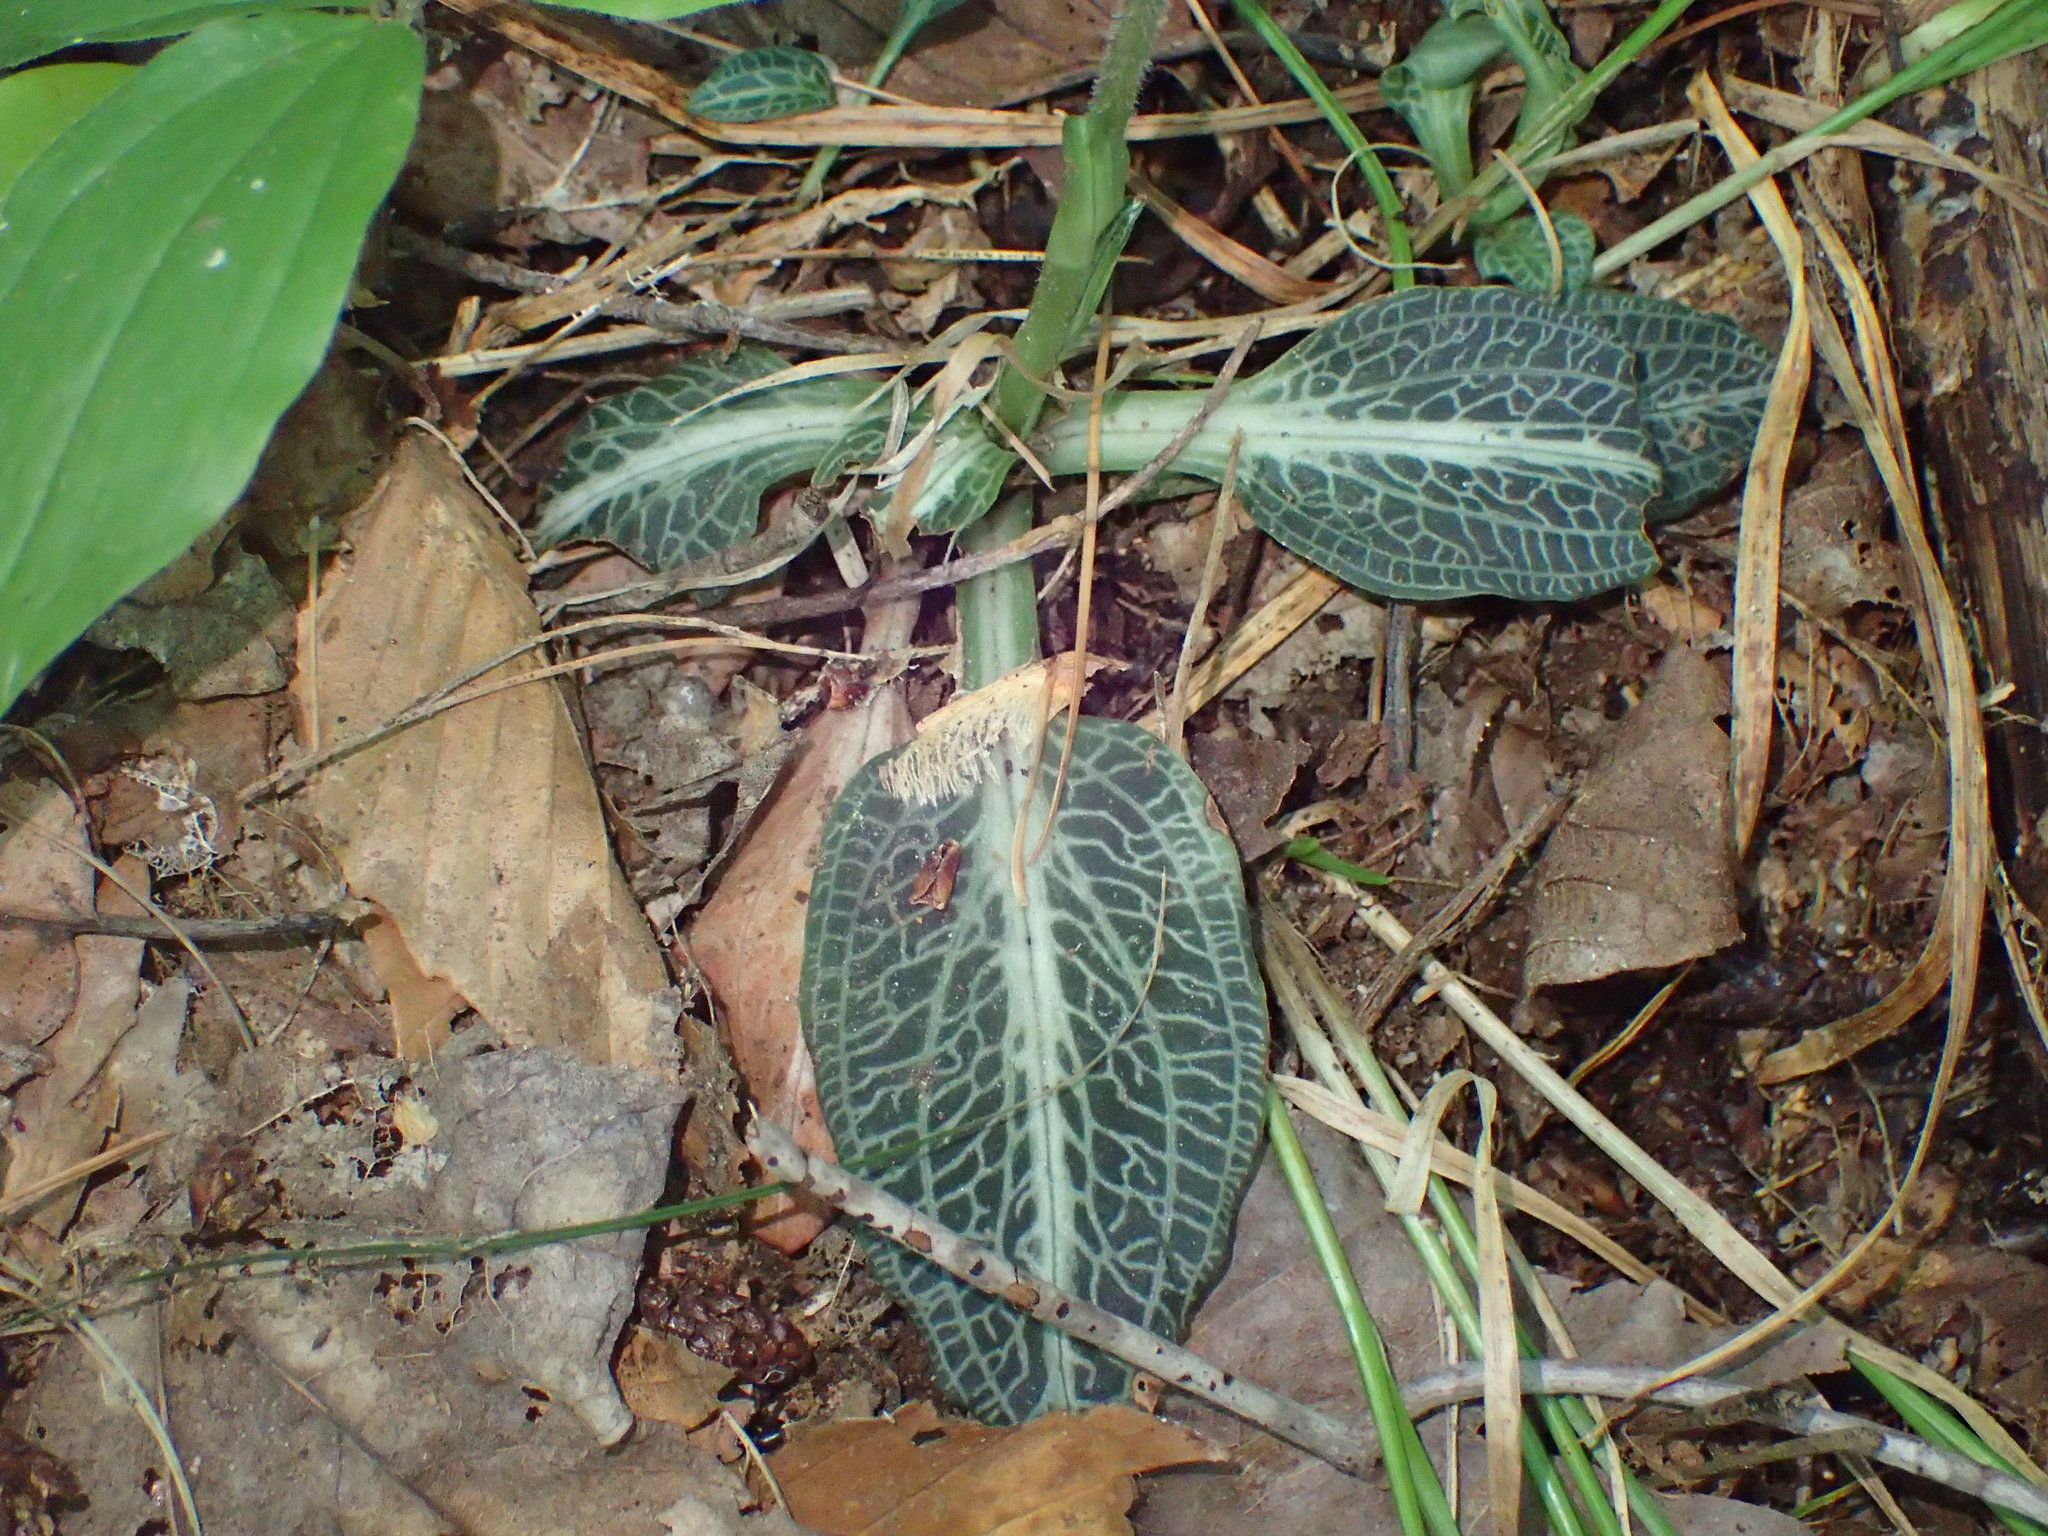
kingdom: Plantae
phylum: Tracheophyta
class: Liliopsida
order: Asparagales
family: Orchidaceae
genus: Goodyera
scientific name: Goodyera pubescens
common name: Downy rattlesnake-plantain
